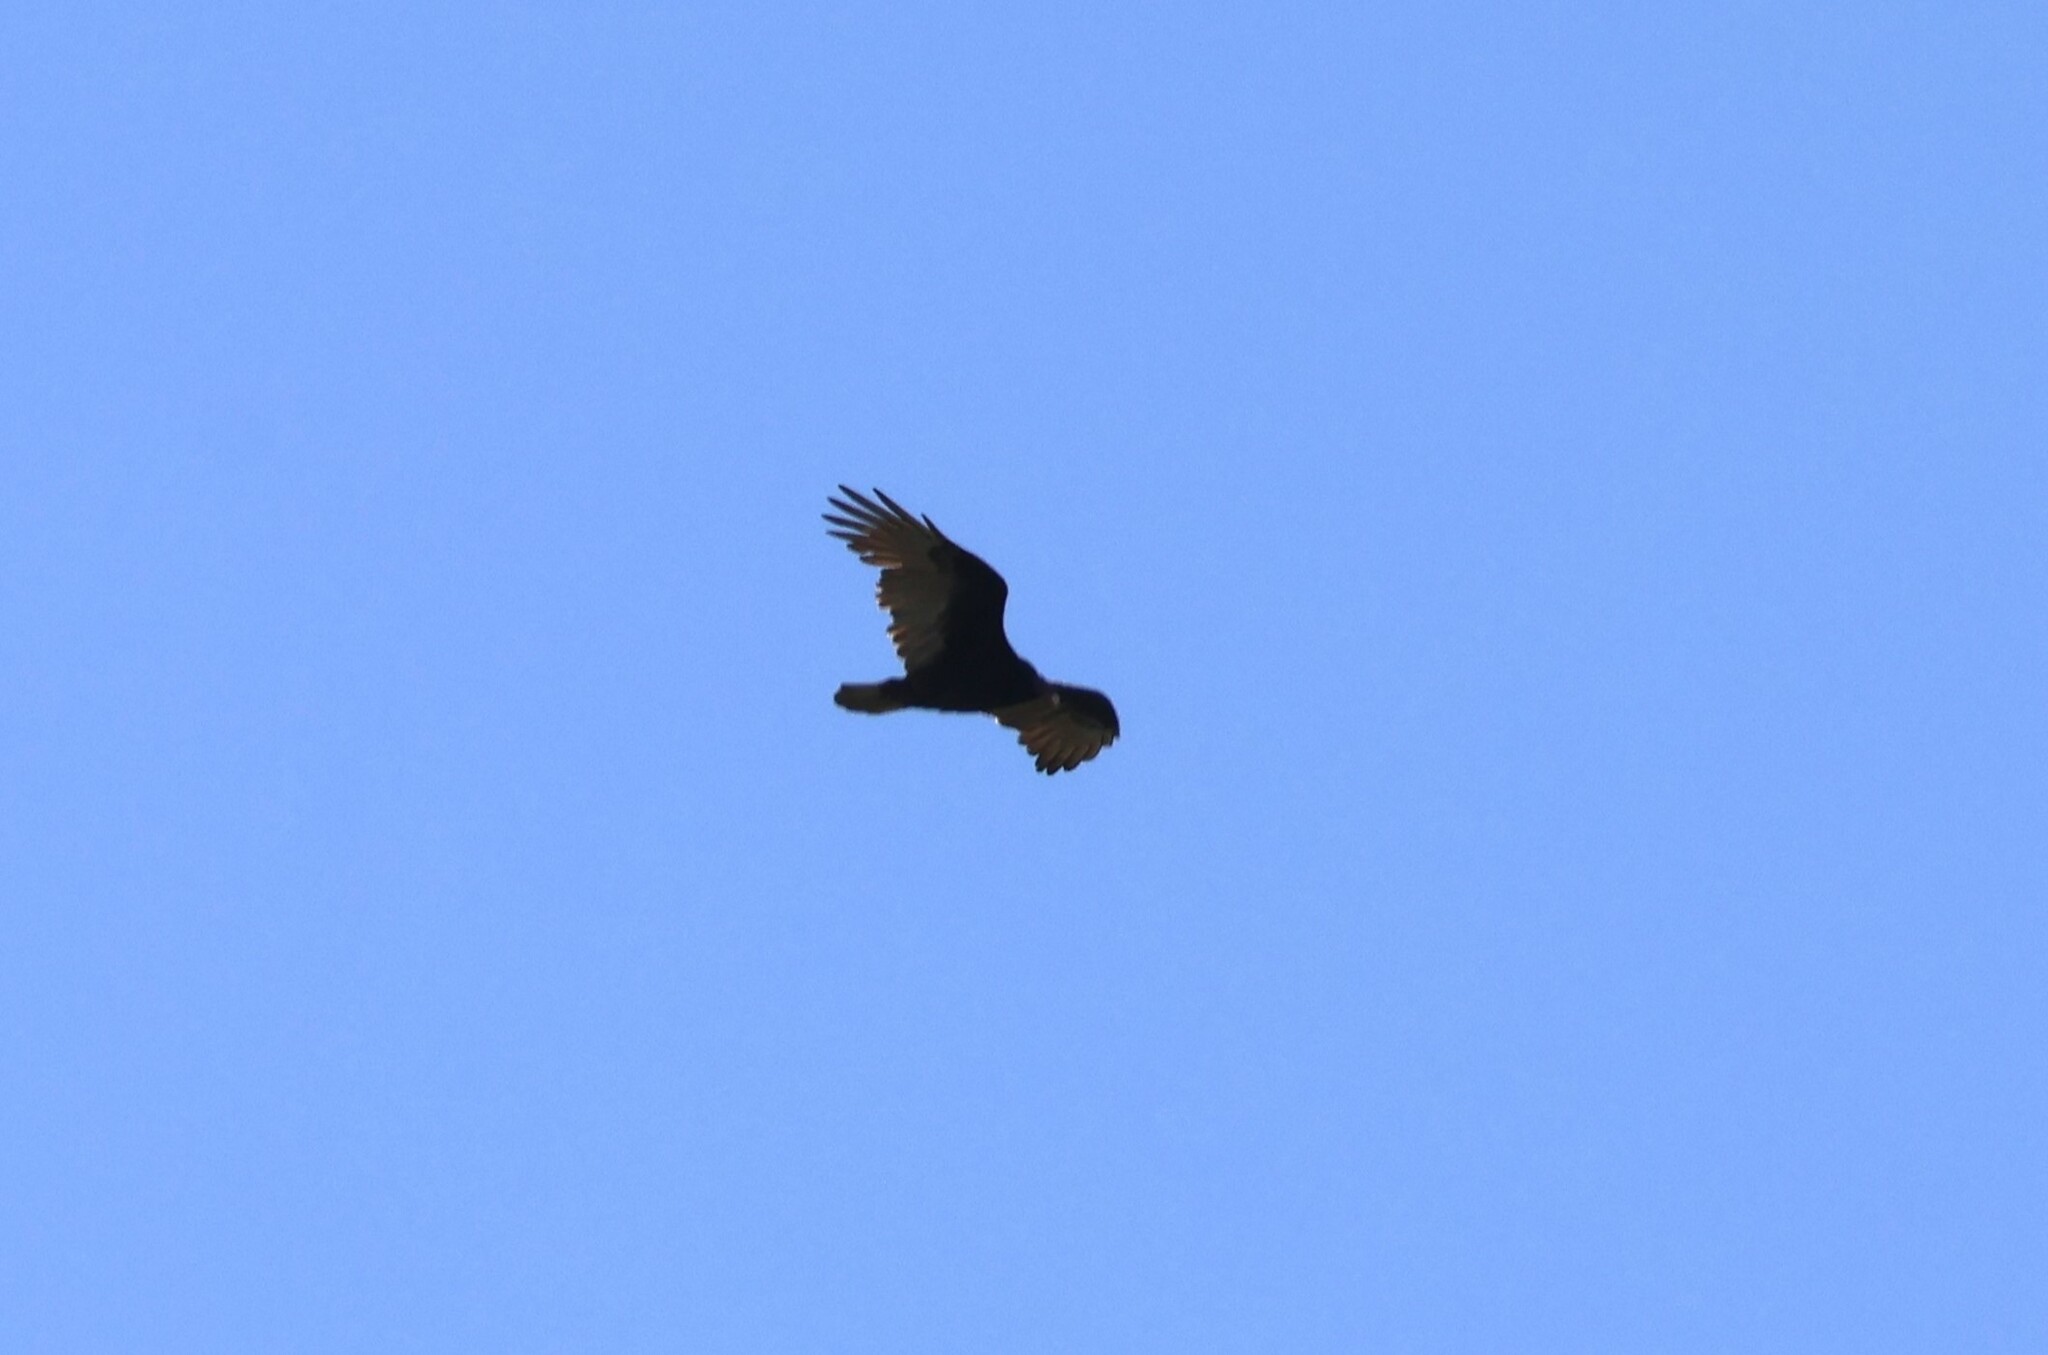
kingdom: Animalia
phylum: Chordata
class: Aves
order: Accipitriformes
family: Cathartidae
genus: Cathartes
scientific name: Cathartes aura
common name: Turkey vulture
